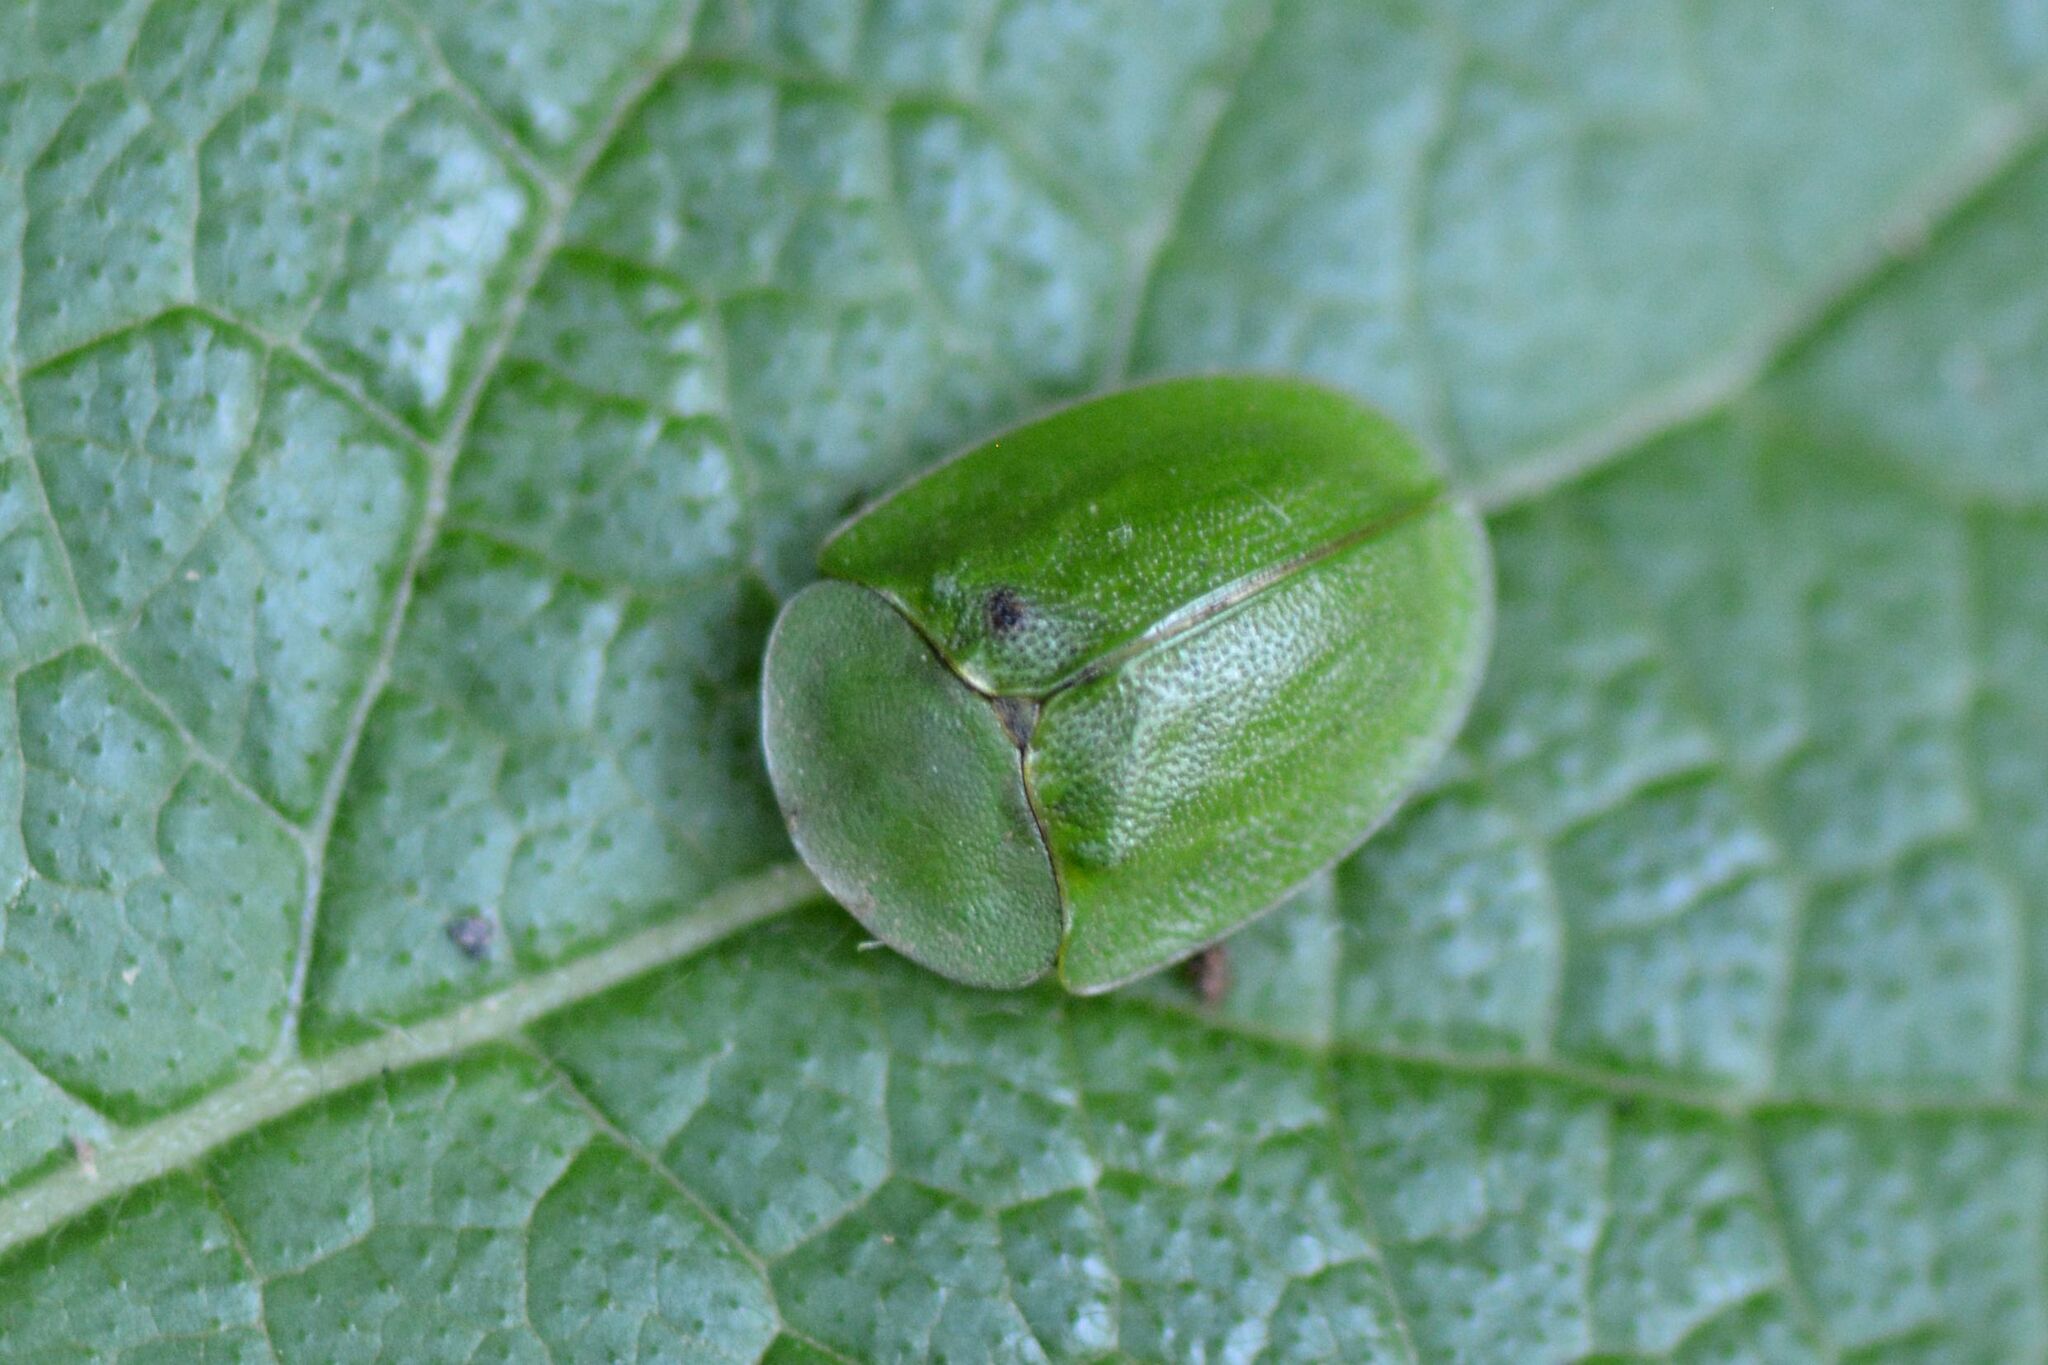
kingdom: Animalia
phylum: Arthropoda
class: Insecta
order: Coleoptera
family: Chrysomelidae
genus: Cassida
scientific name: Cassida viridis
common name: Green tortoise beetle
